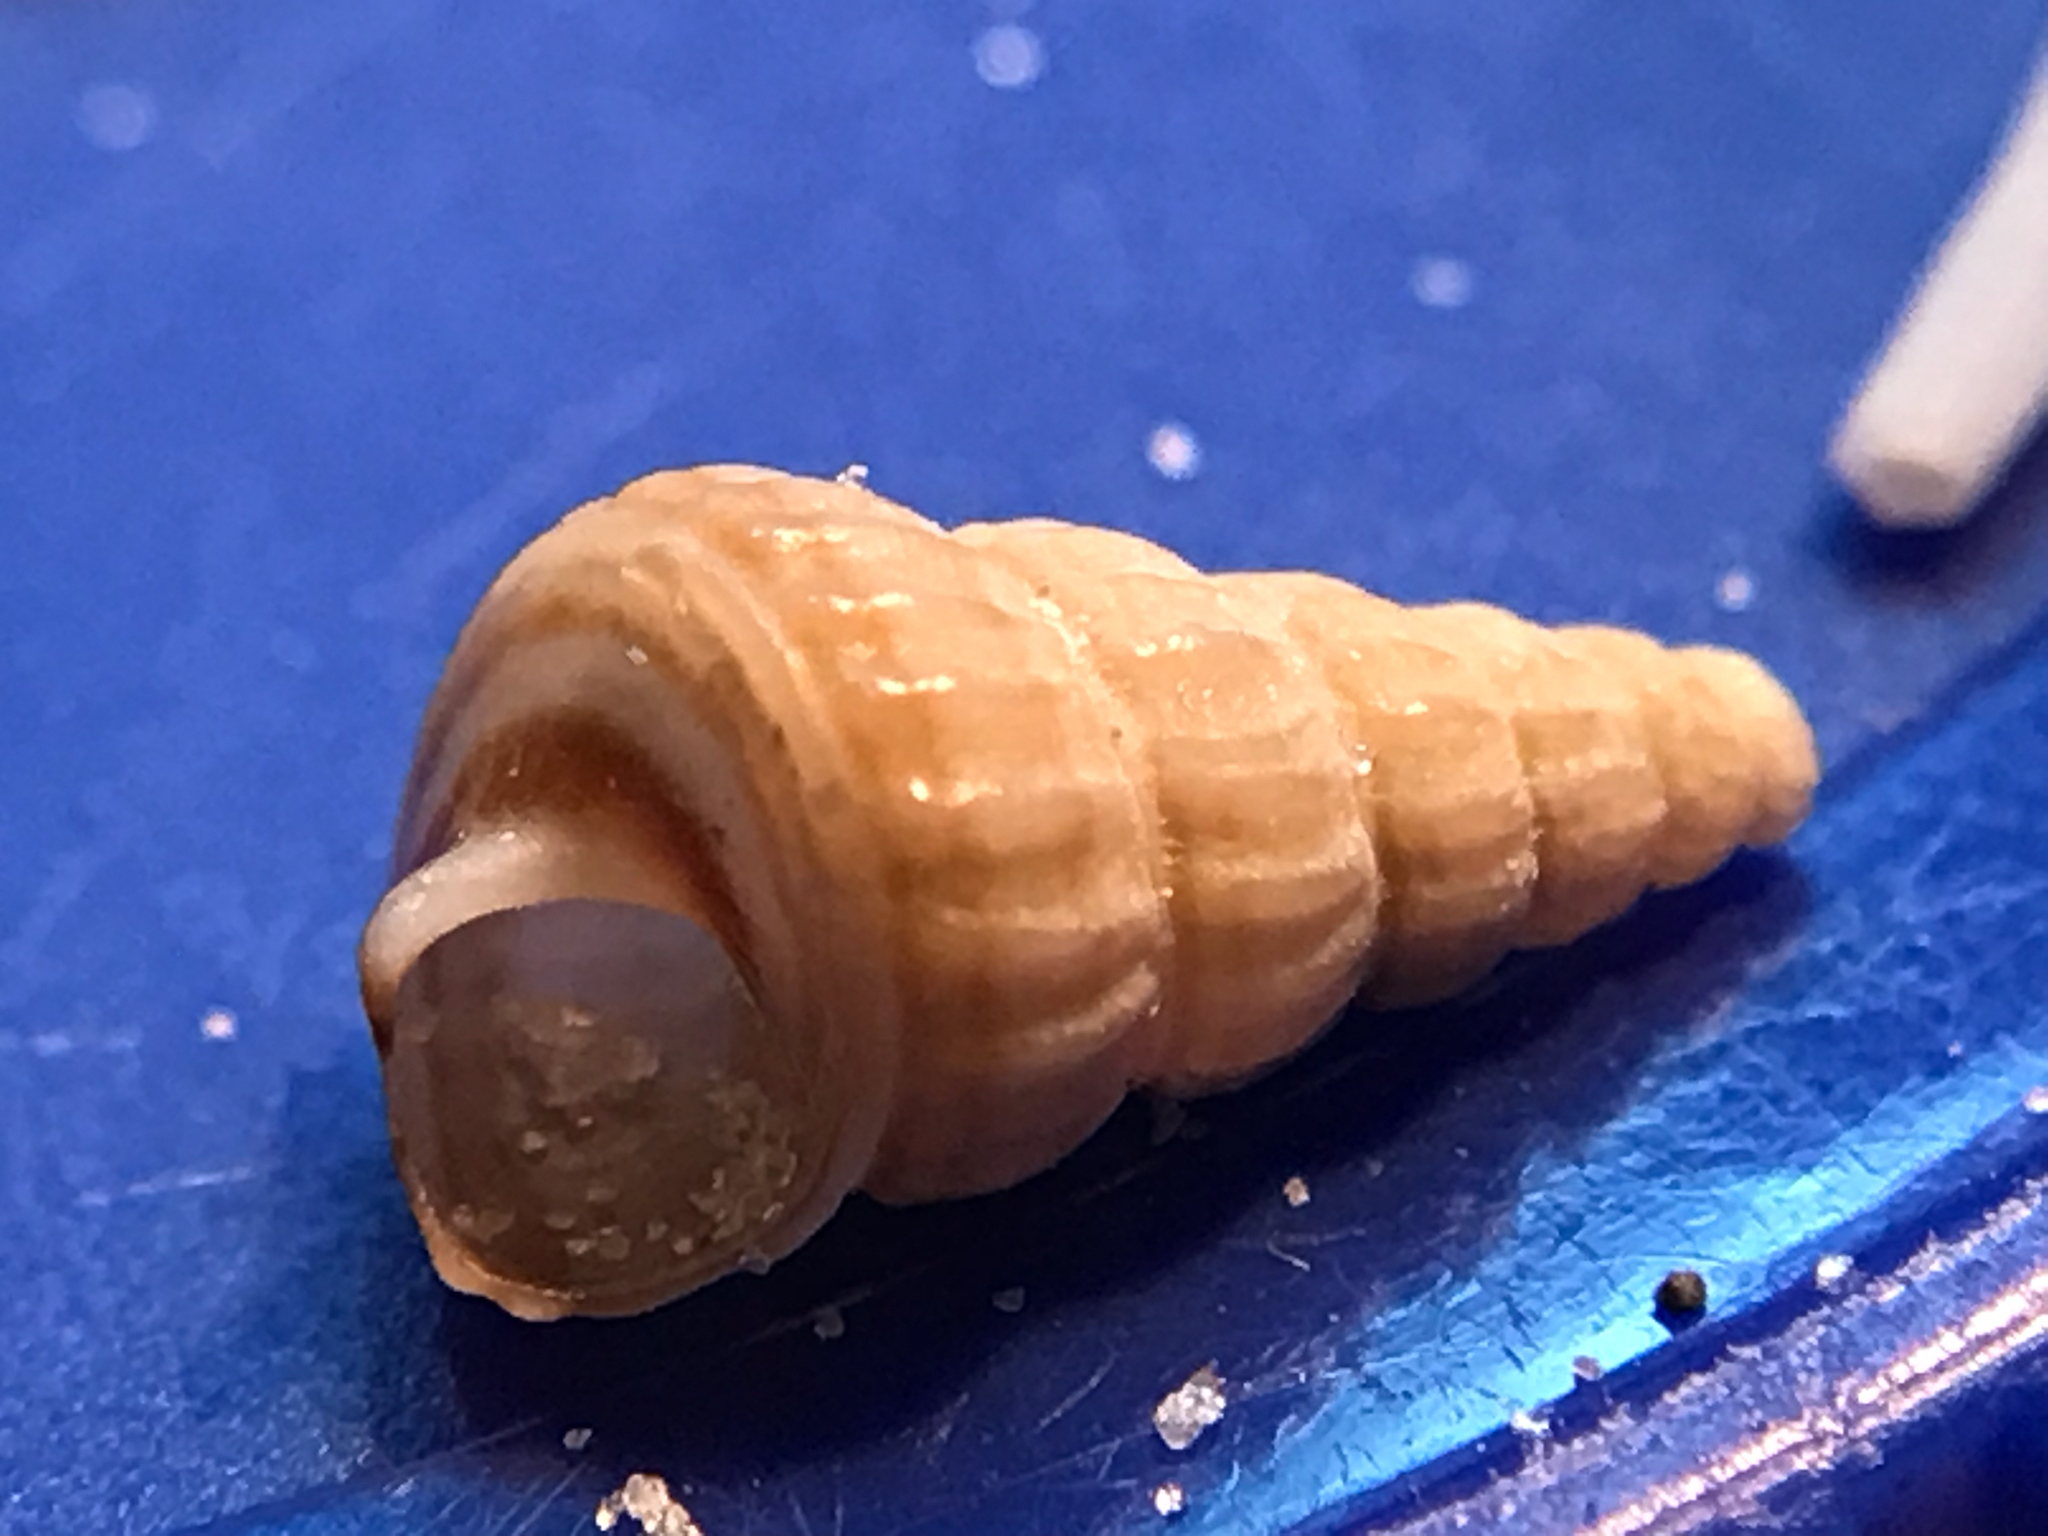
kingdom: Animalia
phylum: Mollusca
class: Gastropoda
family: Potamididae
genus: Cerithideopsis
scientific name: Cerithideopsis scalariformis
